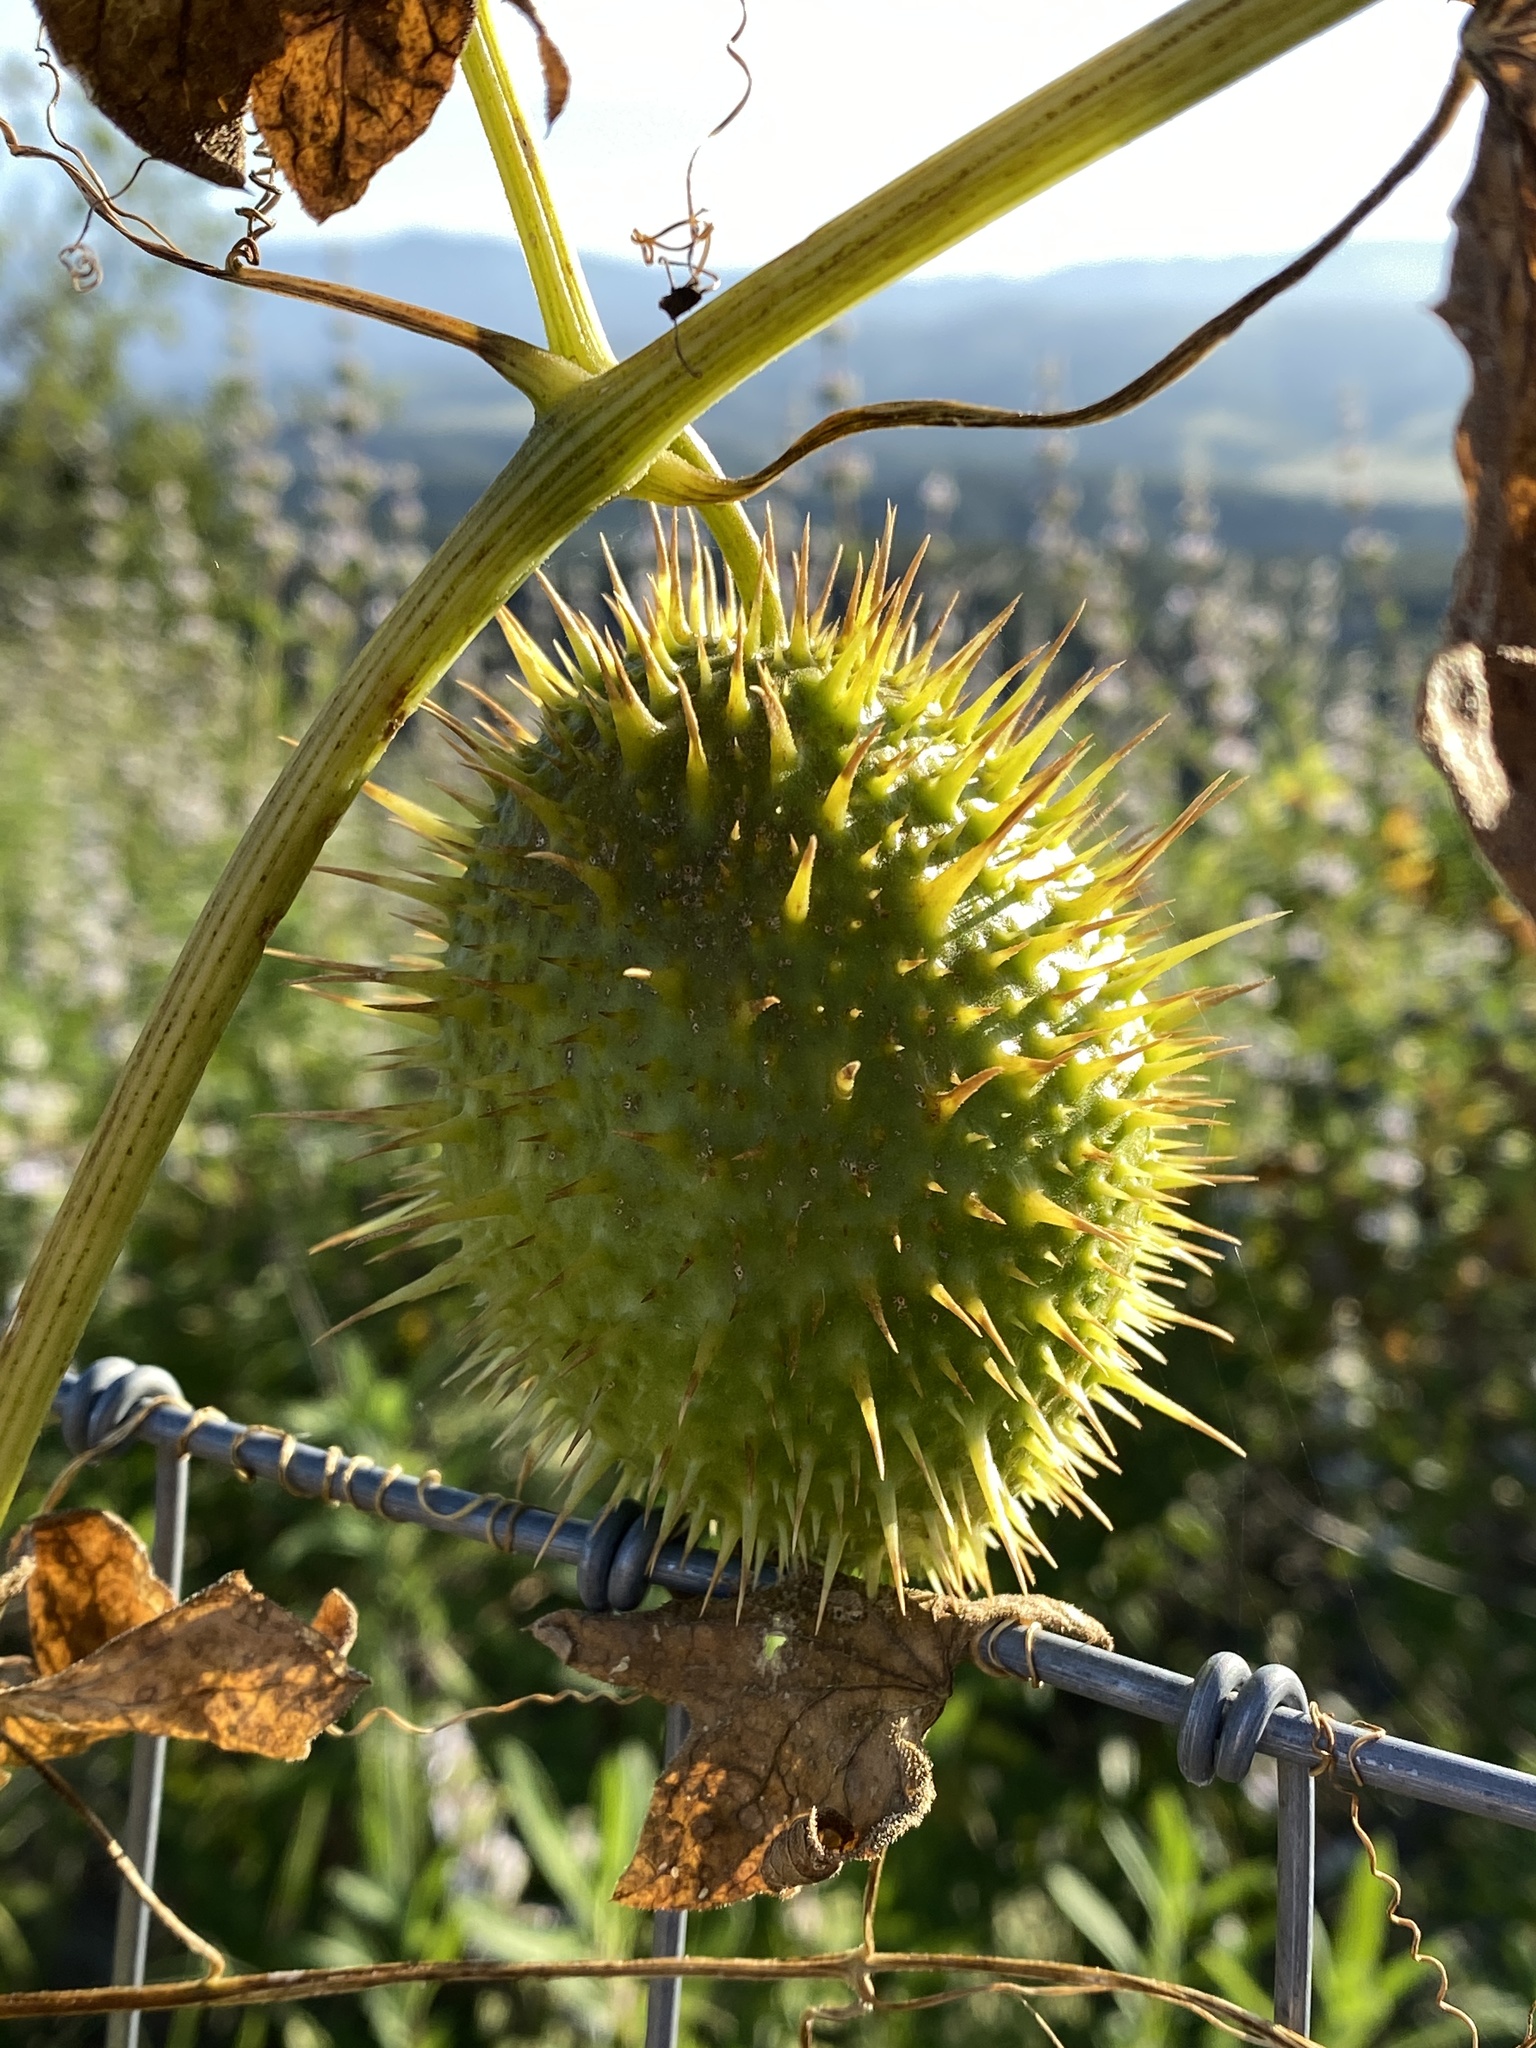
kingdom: Plantae
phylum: Tracheophyta
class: Magnoliopsida
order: Cucurbitales
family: Cucurbitaceae
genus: Marah
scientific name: Marah macrocarpa
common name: Cucamonga manroot
